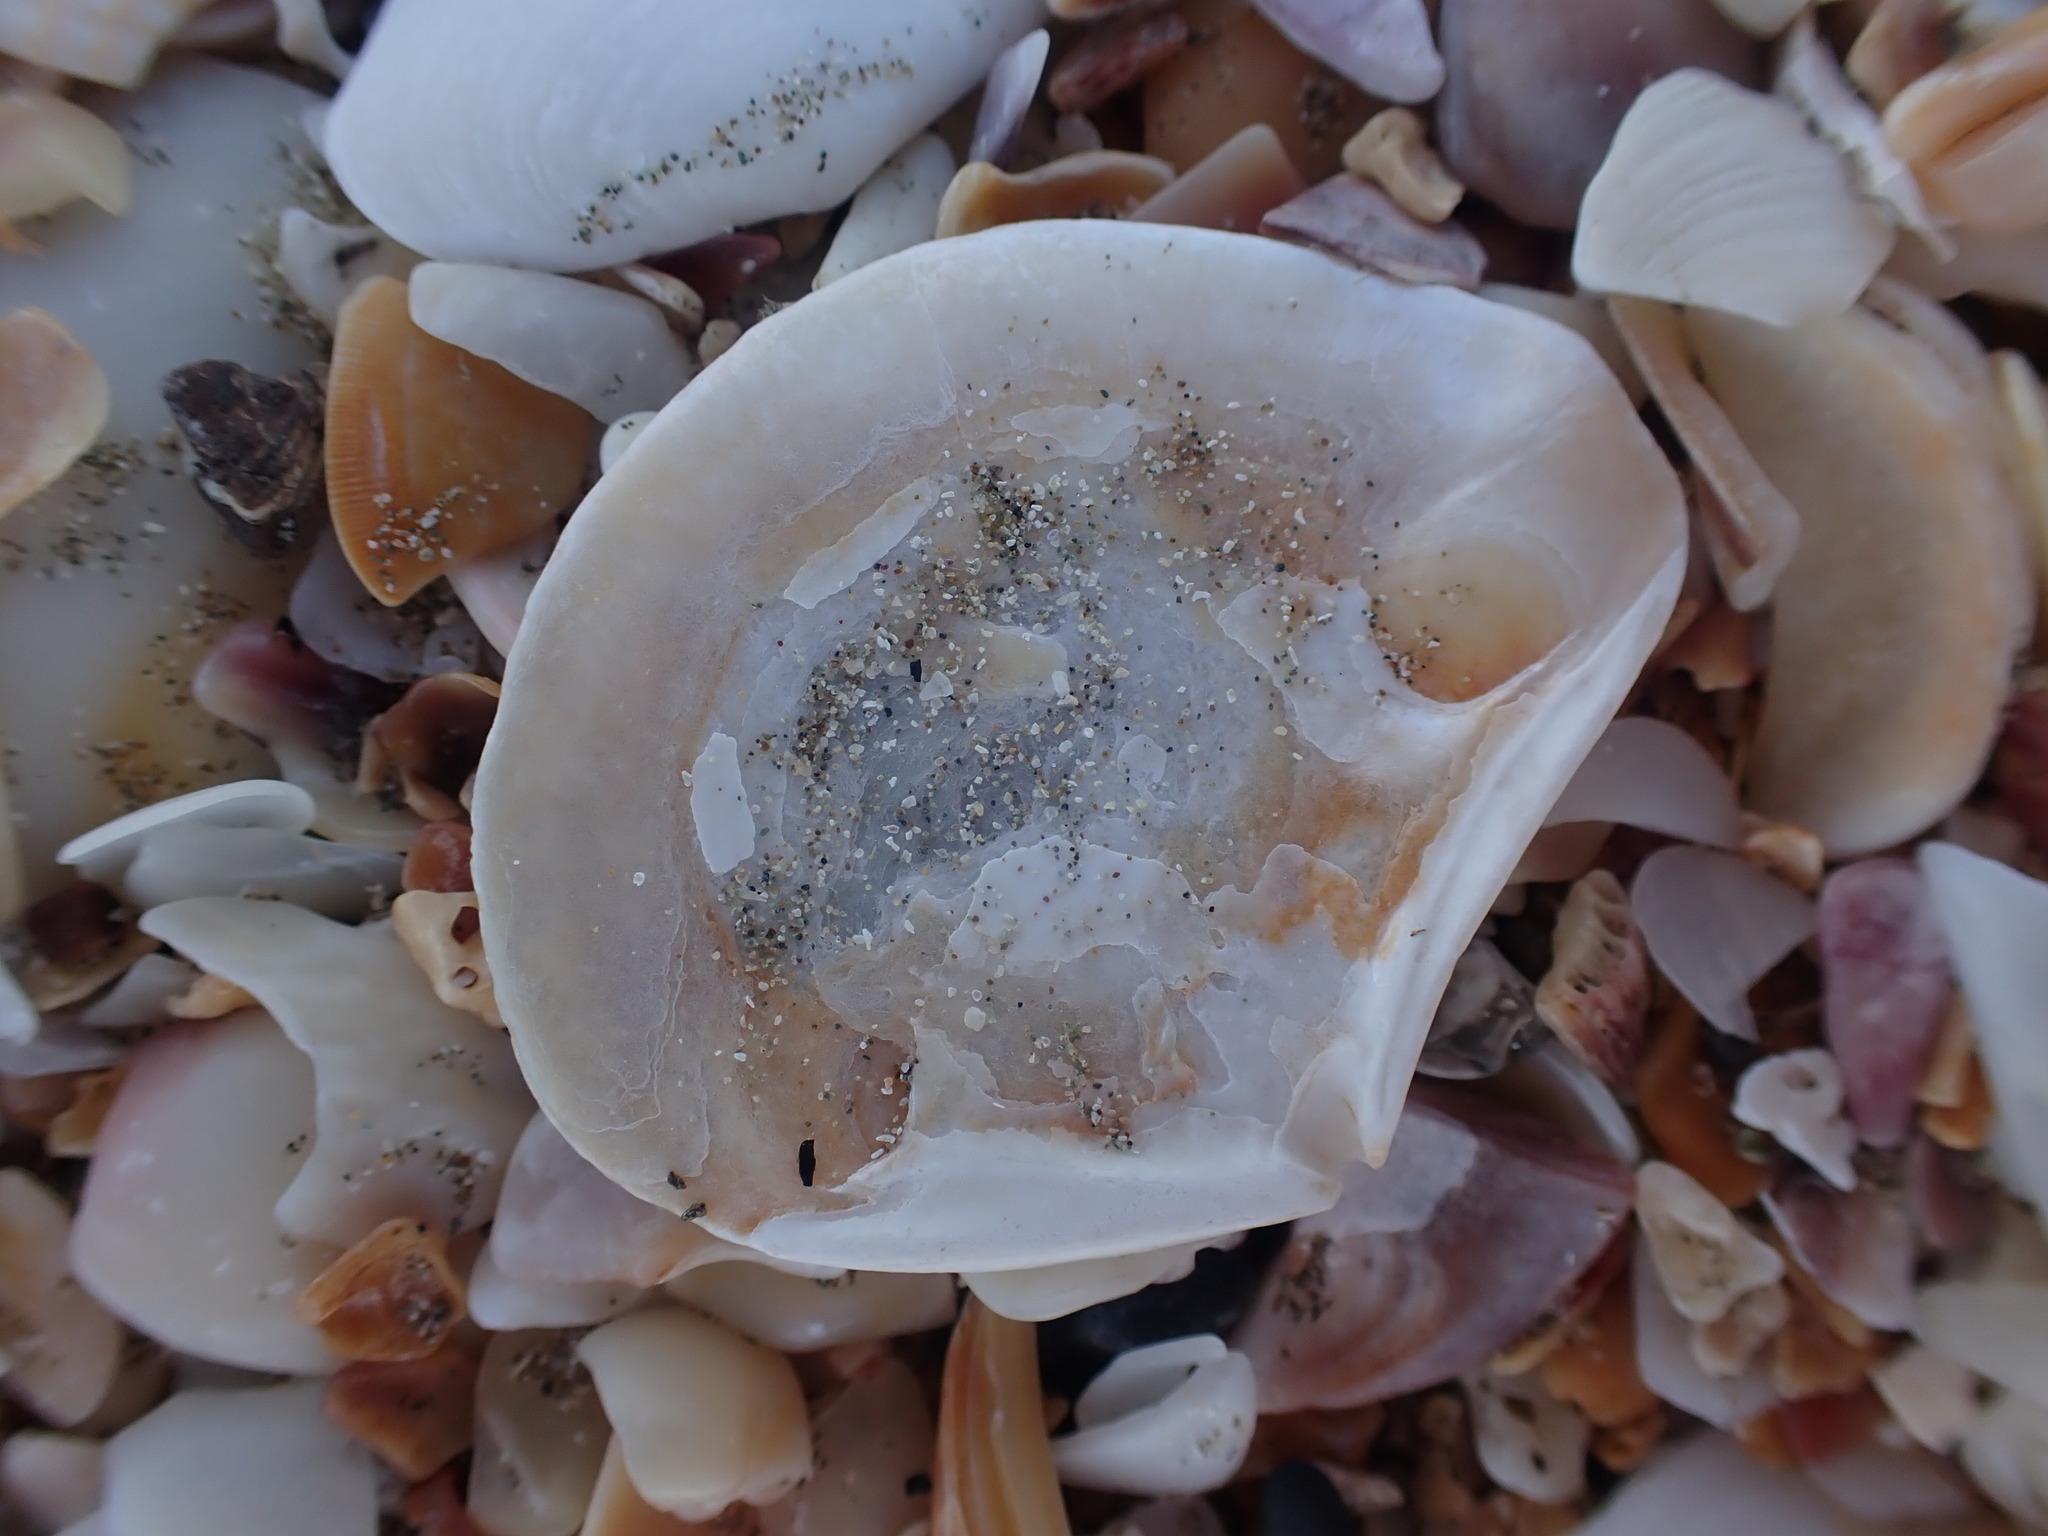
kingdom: Animalia
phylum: Mollusca
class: Bivalvia
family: Myochamidae
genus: Myadora
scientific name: Myadora striata
